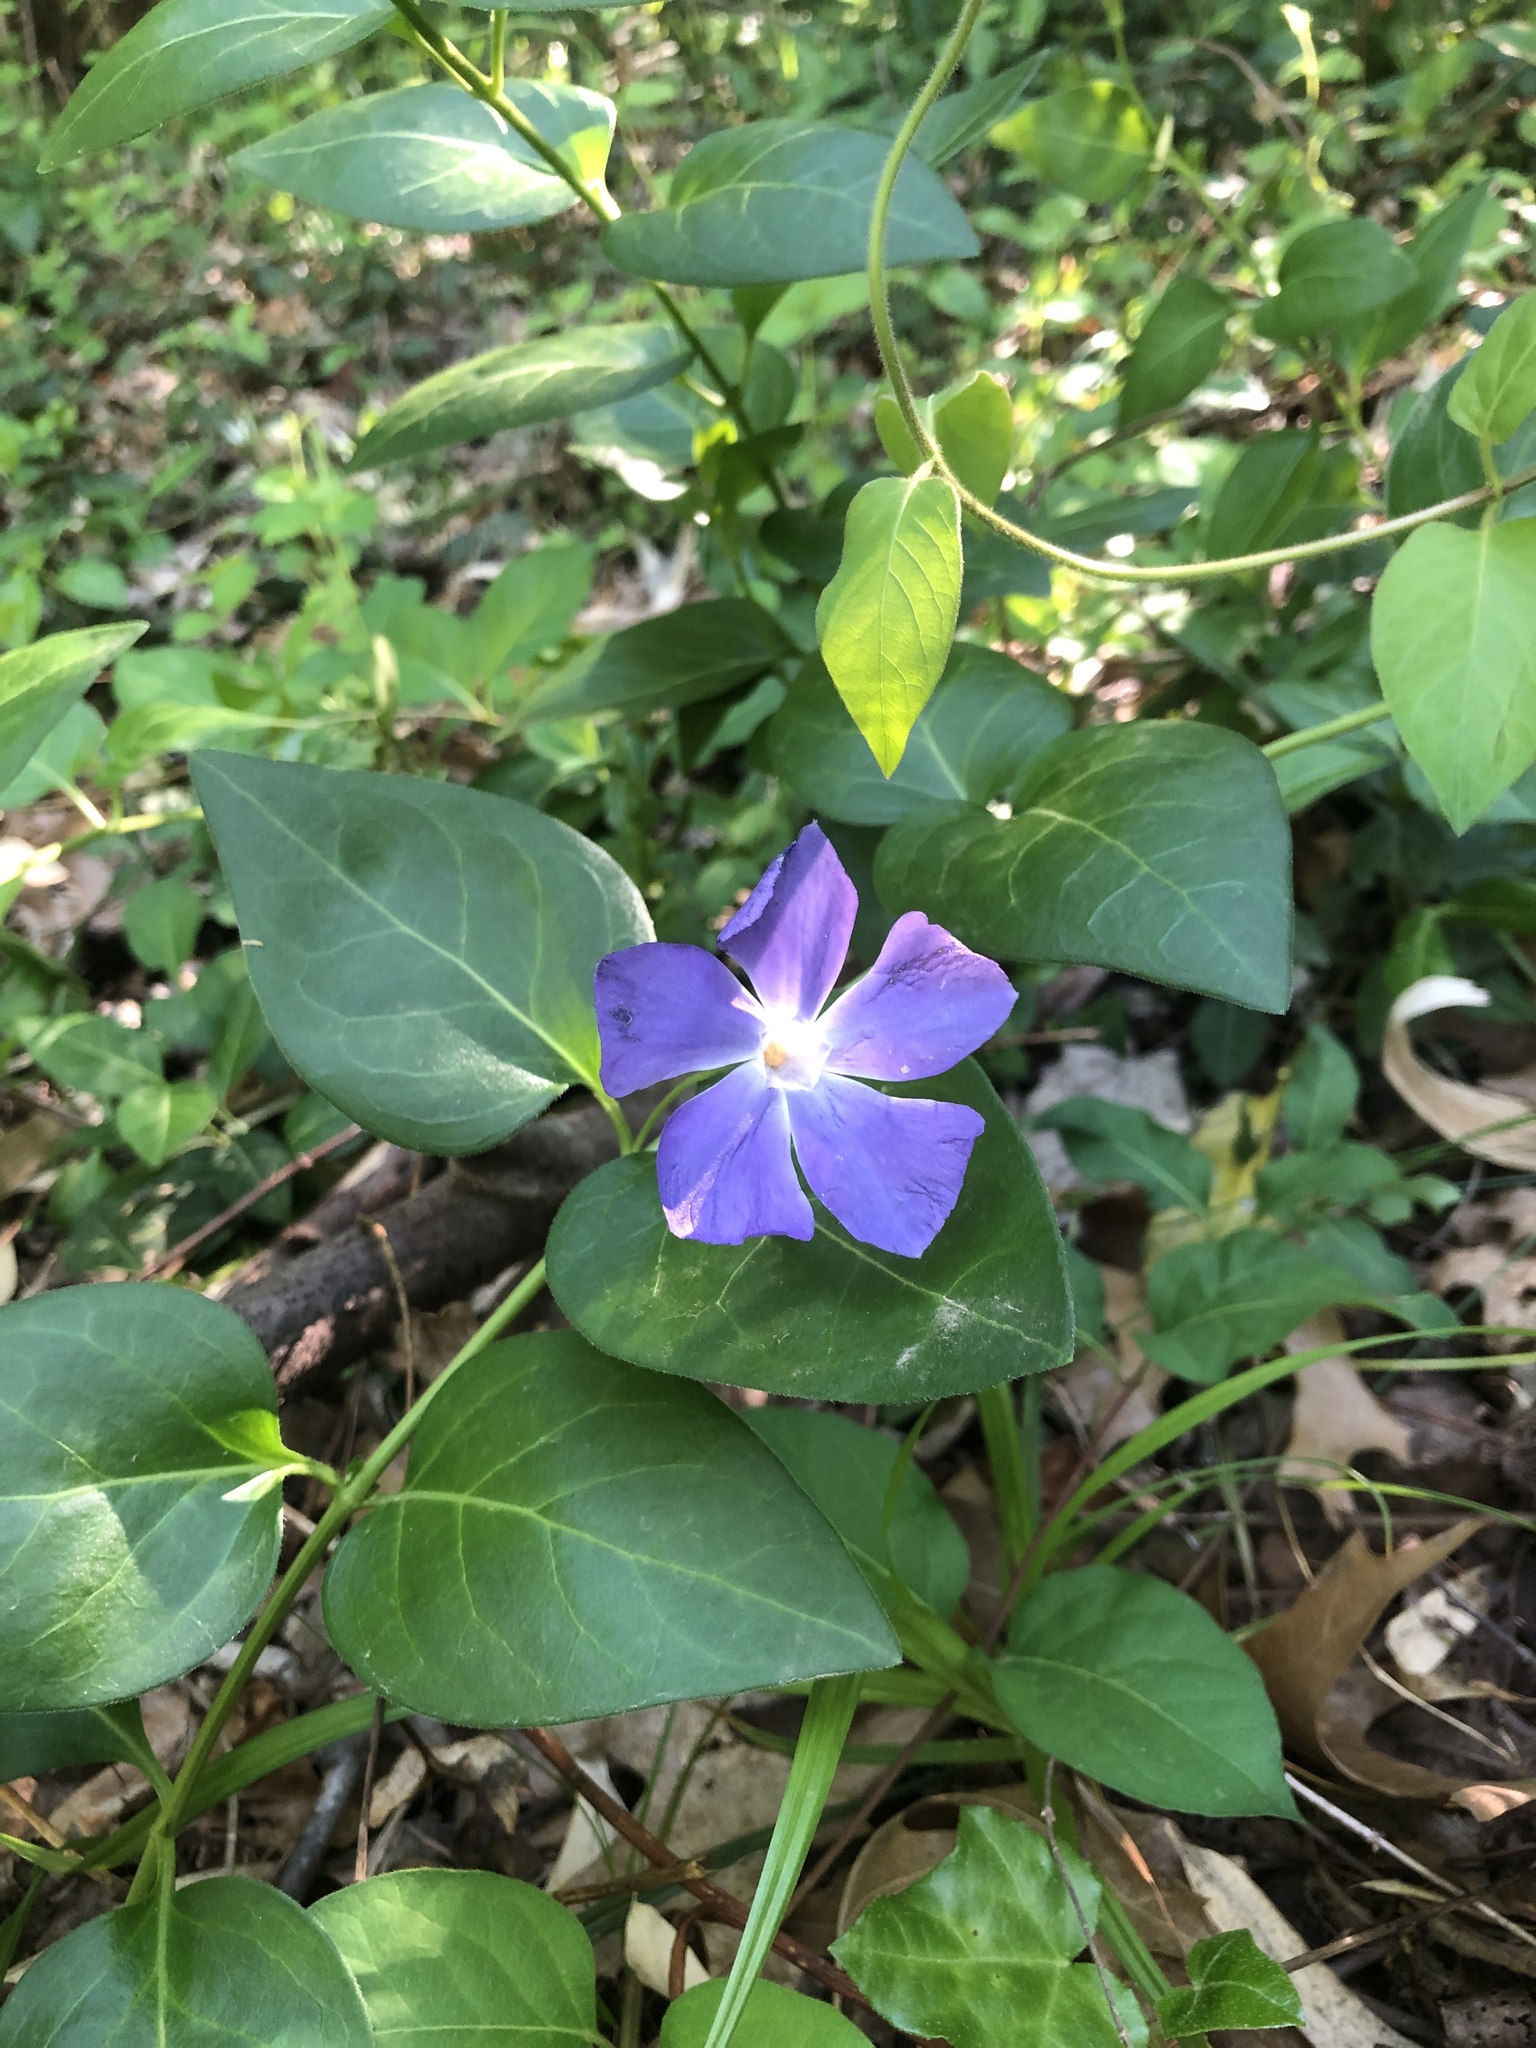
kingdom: Plantae
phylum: Tracheophyta
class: Magnoliopsida
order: Gentianales
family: Apocynaceae
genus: Vinca
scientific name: Vinca major
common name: Greater periwinkle
